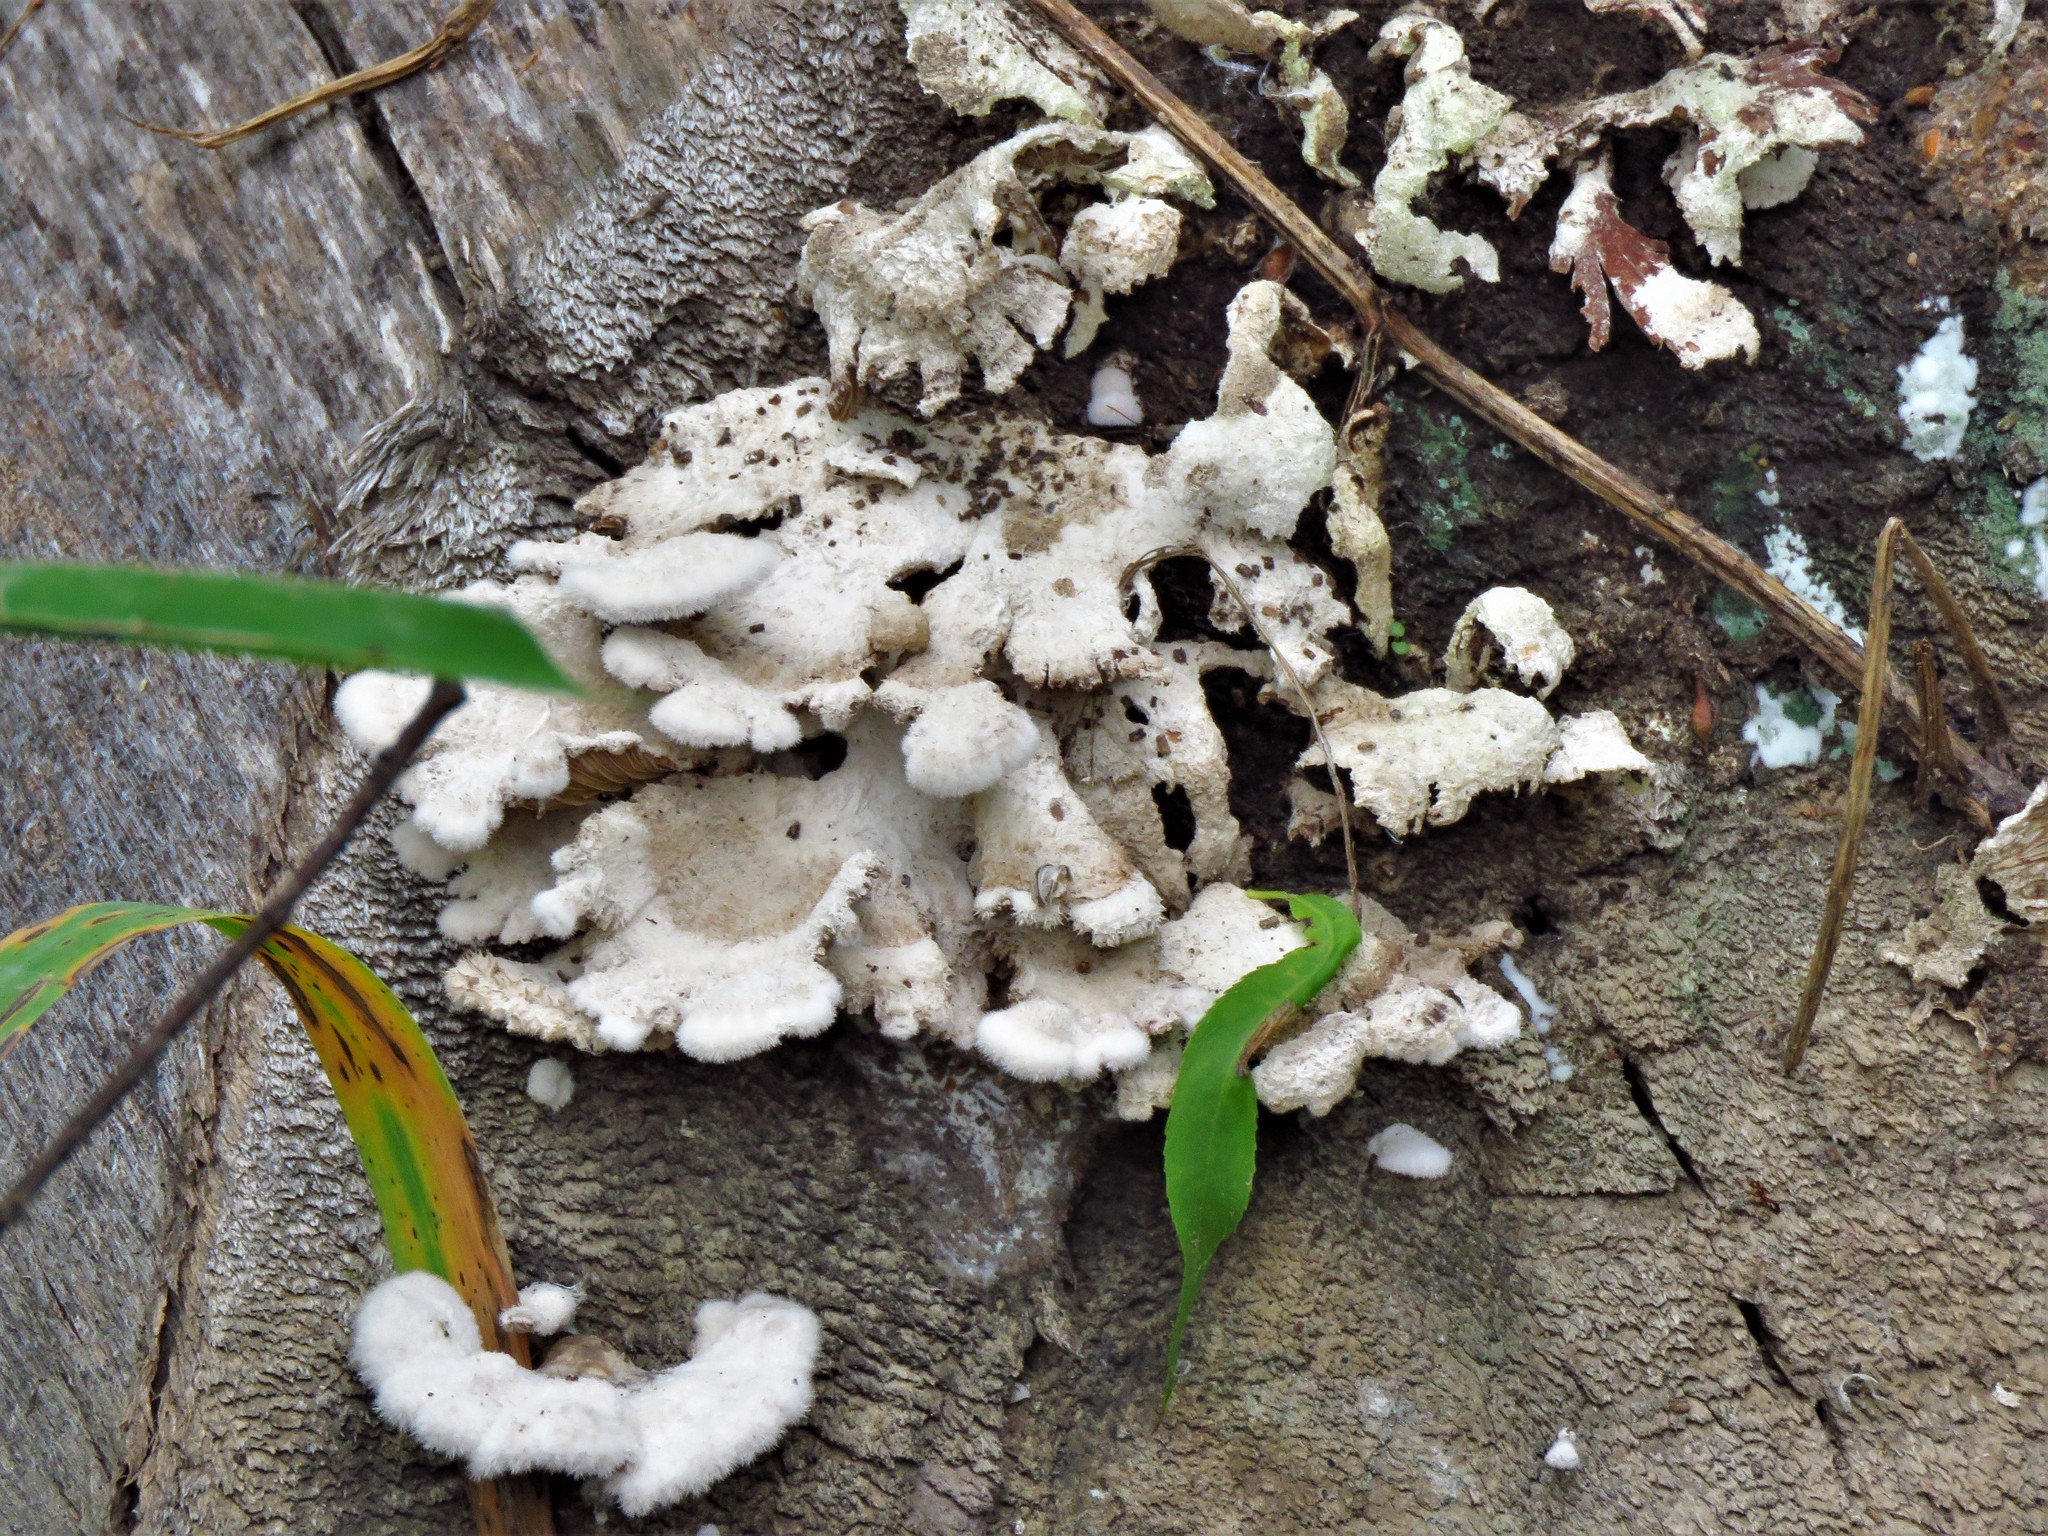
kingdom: Fungi
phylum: Basidiomycota
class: Agaricomycetes
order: Agaricales
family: Schizophyllaceae
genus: Schizophyllum
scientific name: Schizophyllum commune
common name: Common porecrust
